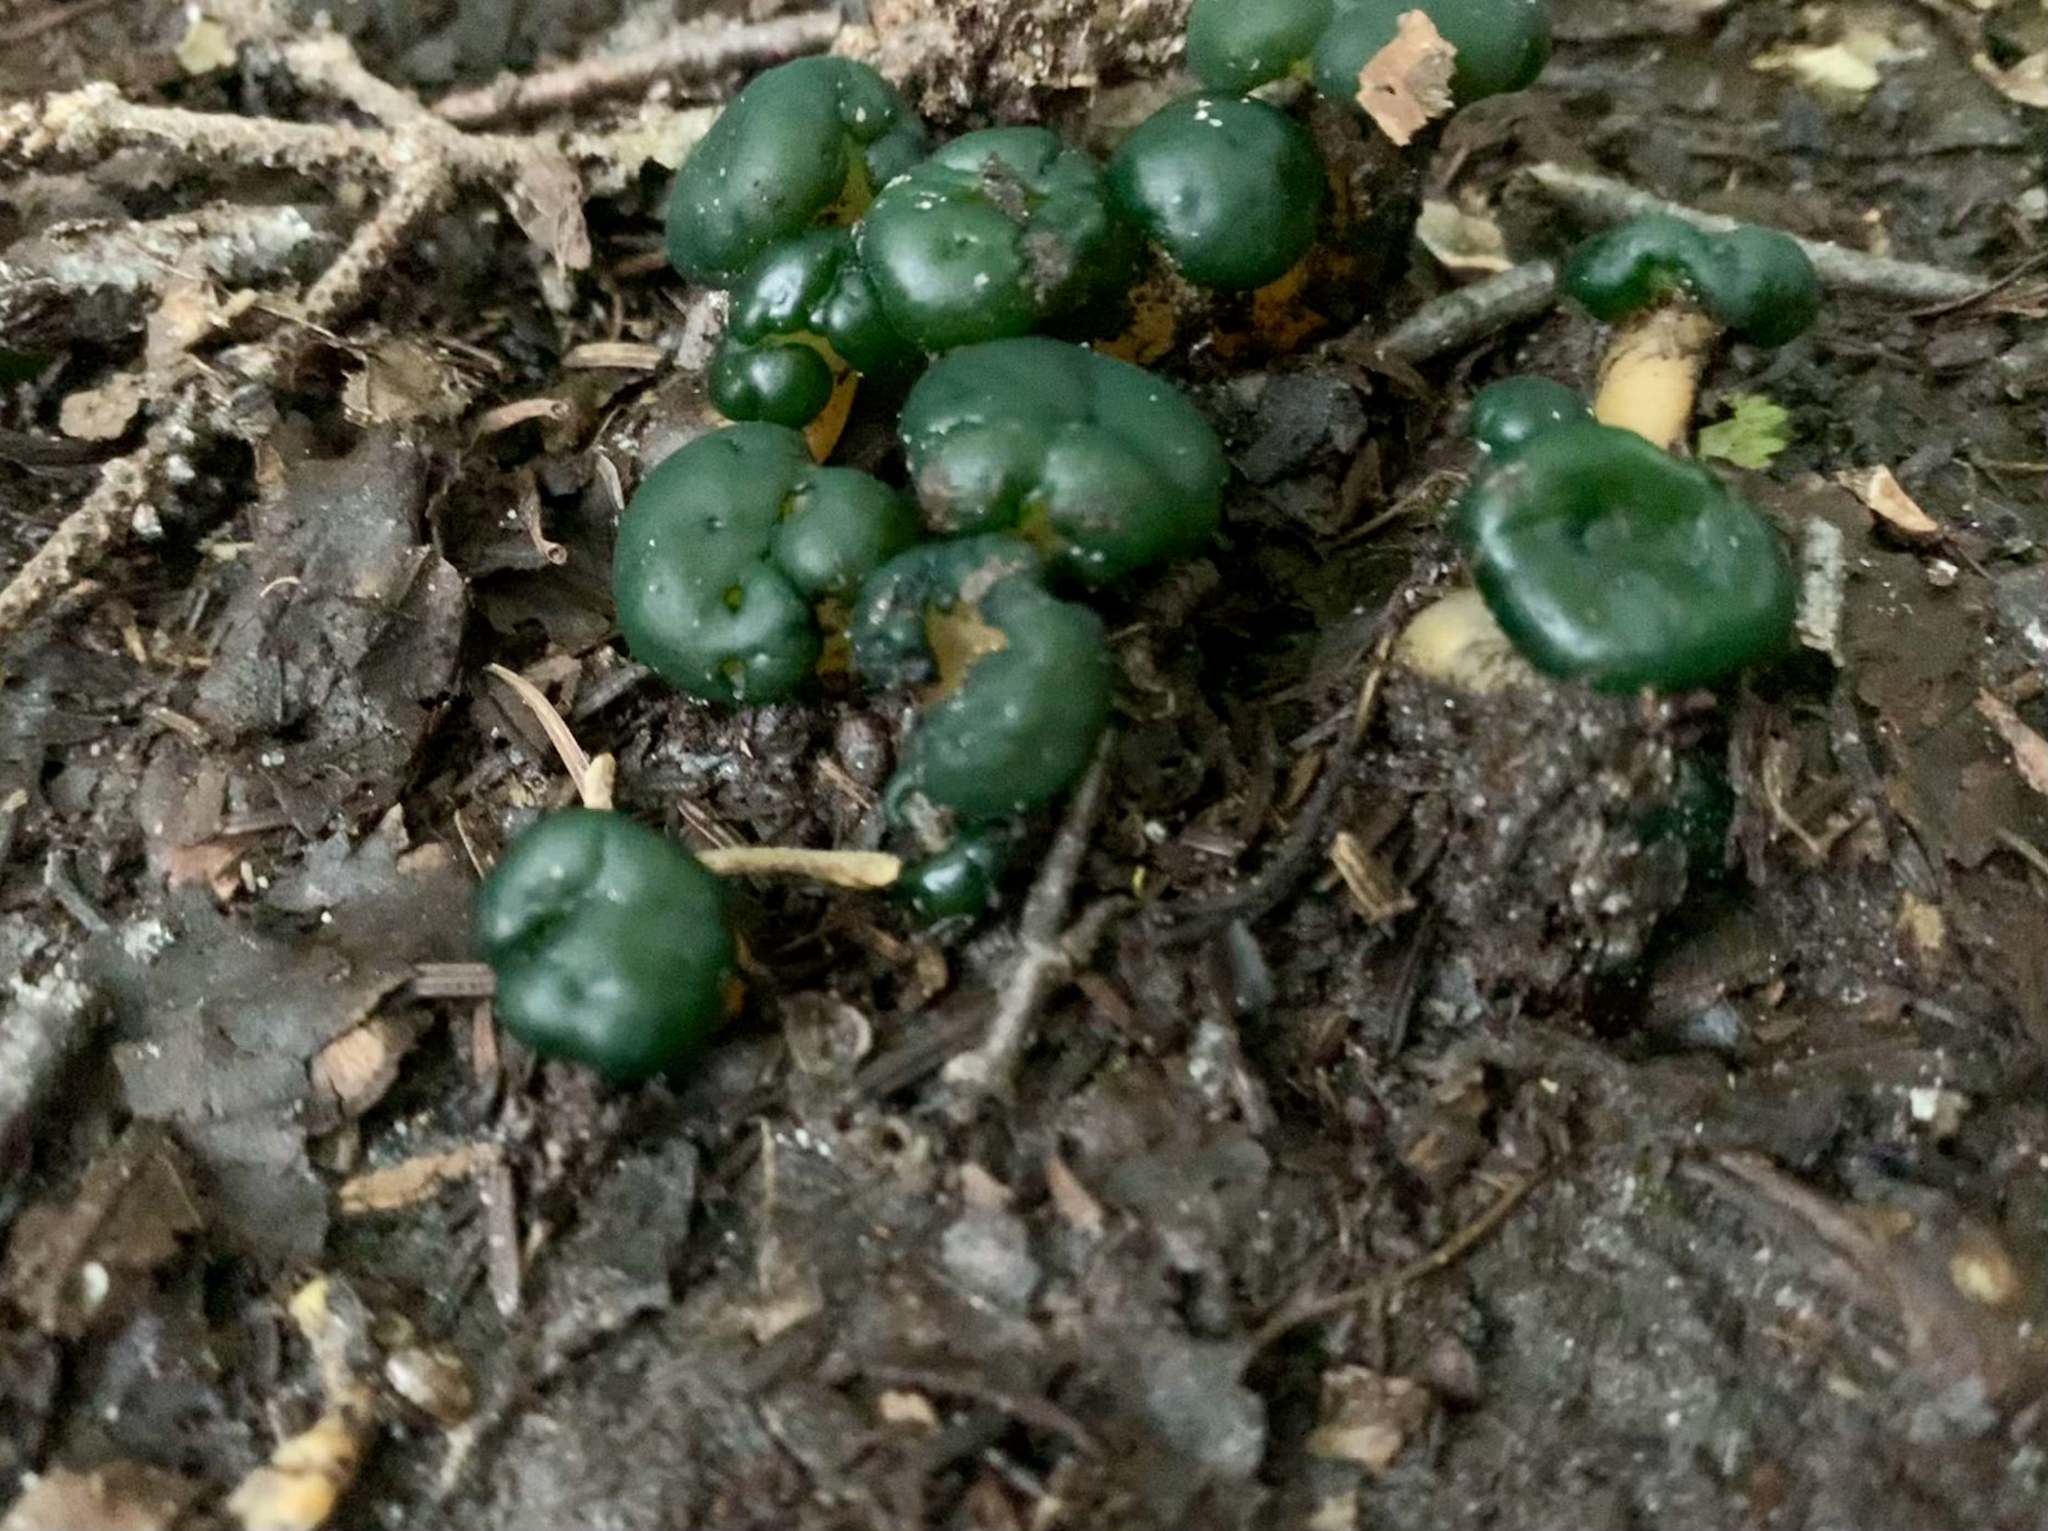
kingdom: Fungi
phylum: Ascomycota
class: Leotiomycetes
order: Leotiales
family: Leotiaceae
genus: Leotia
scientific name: Leotia lubrica
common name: Jellybaby
